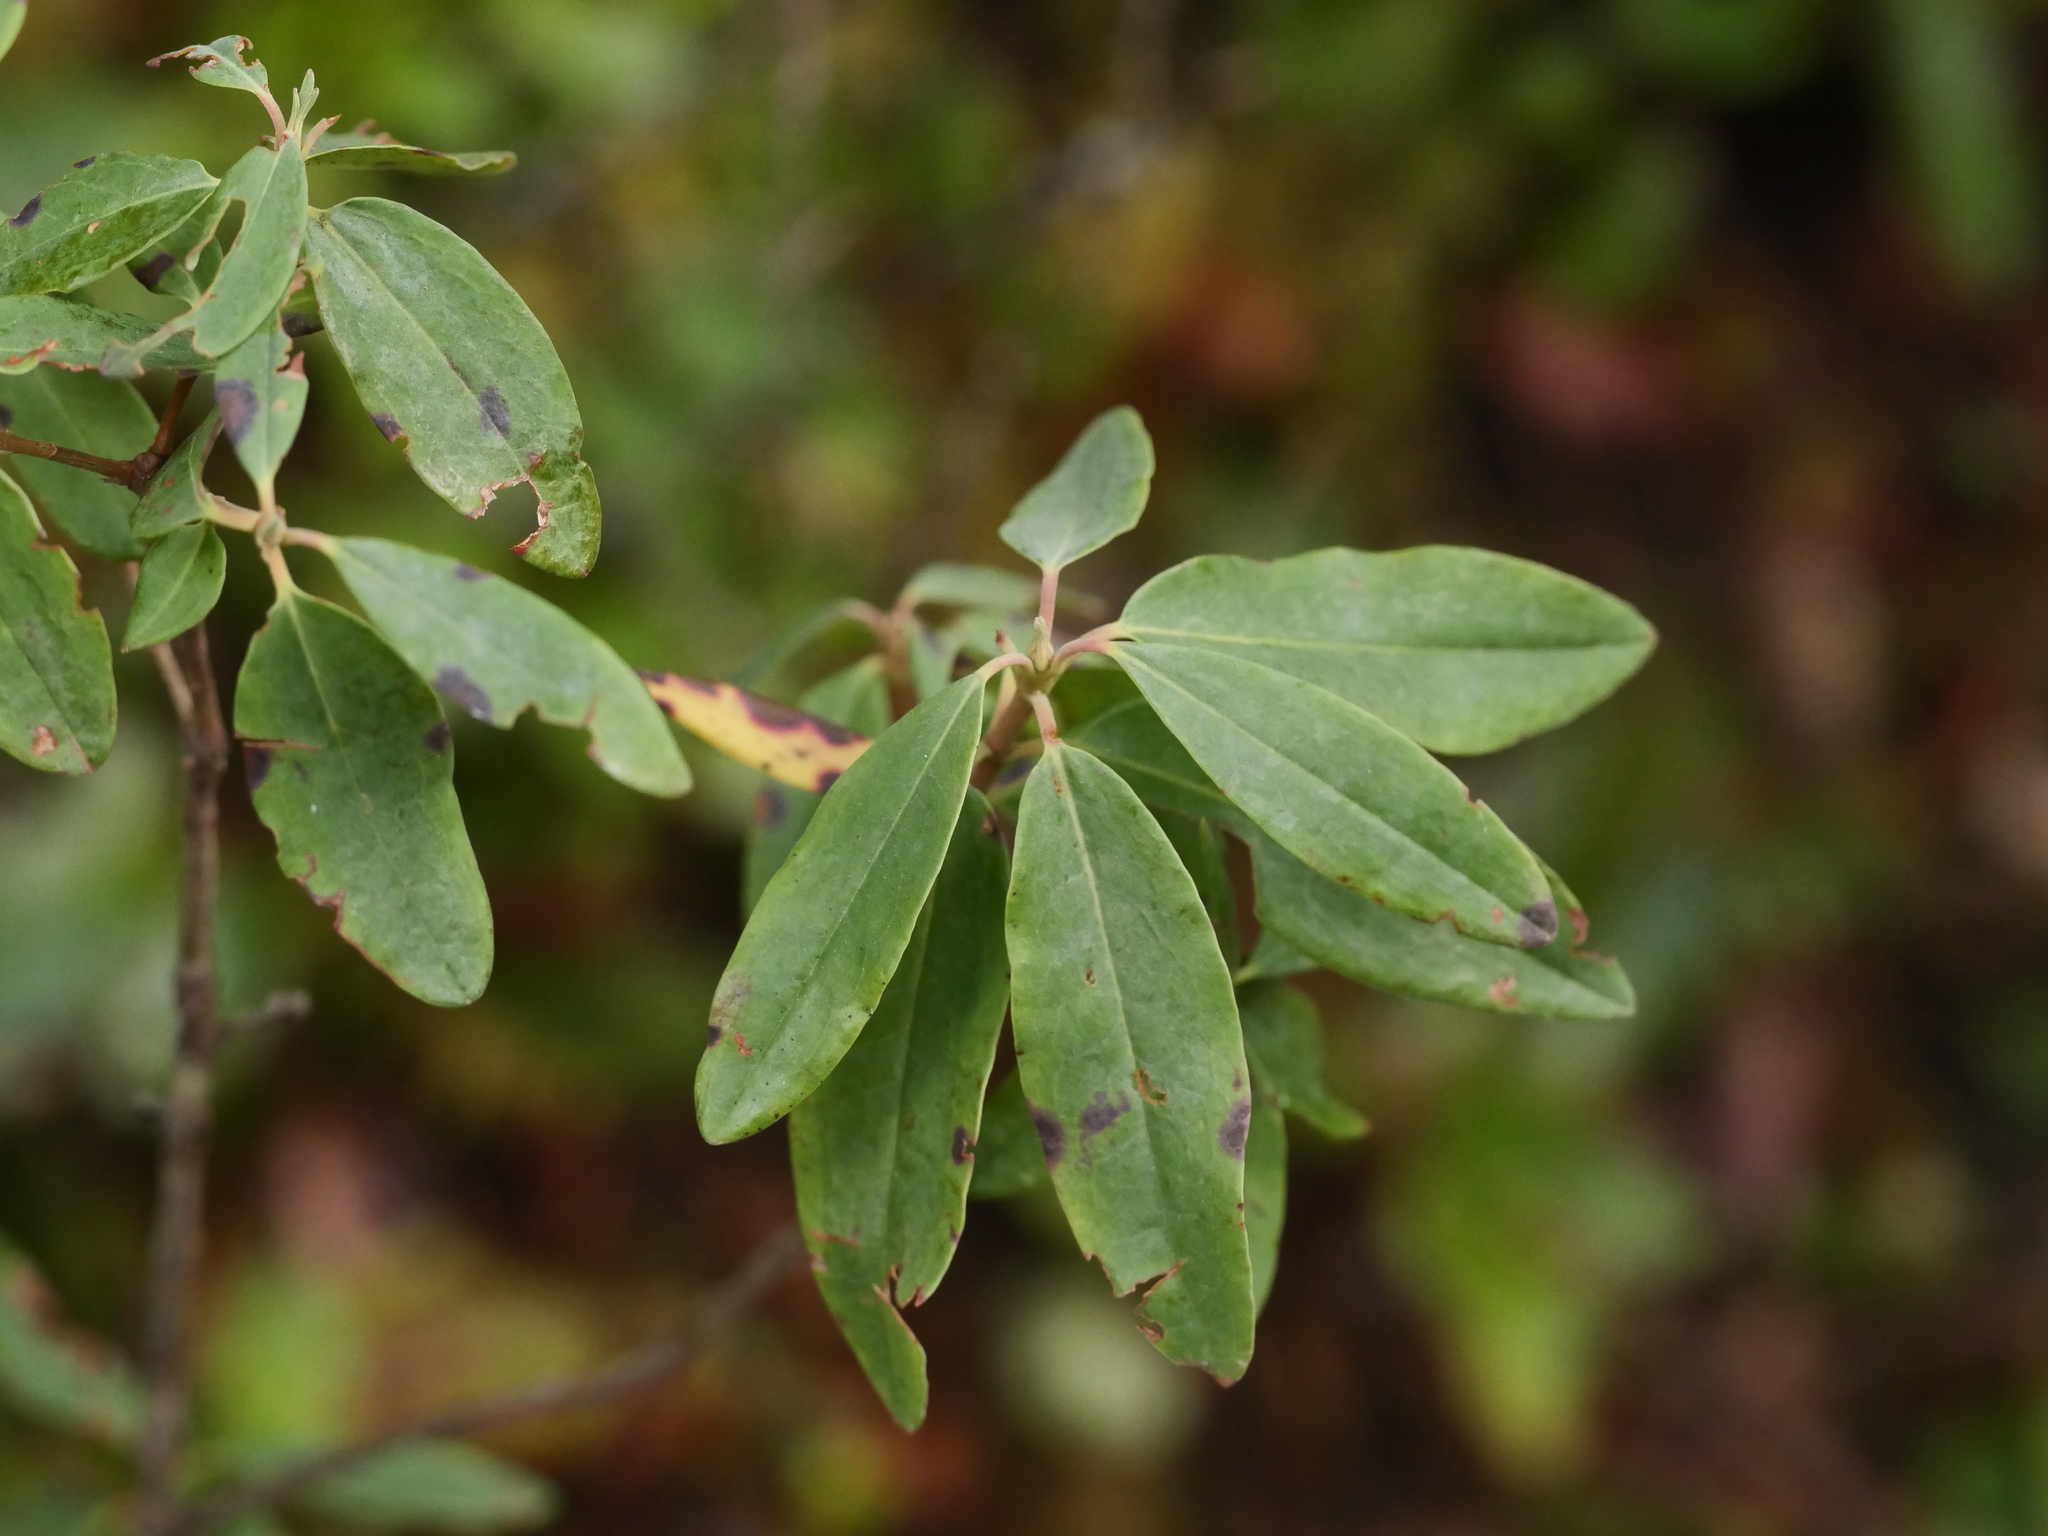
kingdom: Plantae
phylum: Tracheophyta
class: Magnoliopsida
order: Ericales
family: Ericaceae
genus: Kalmia
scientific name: Kalmia angustifolia
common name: Sheep-laurel
